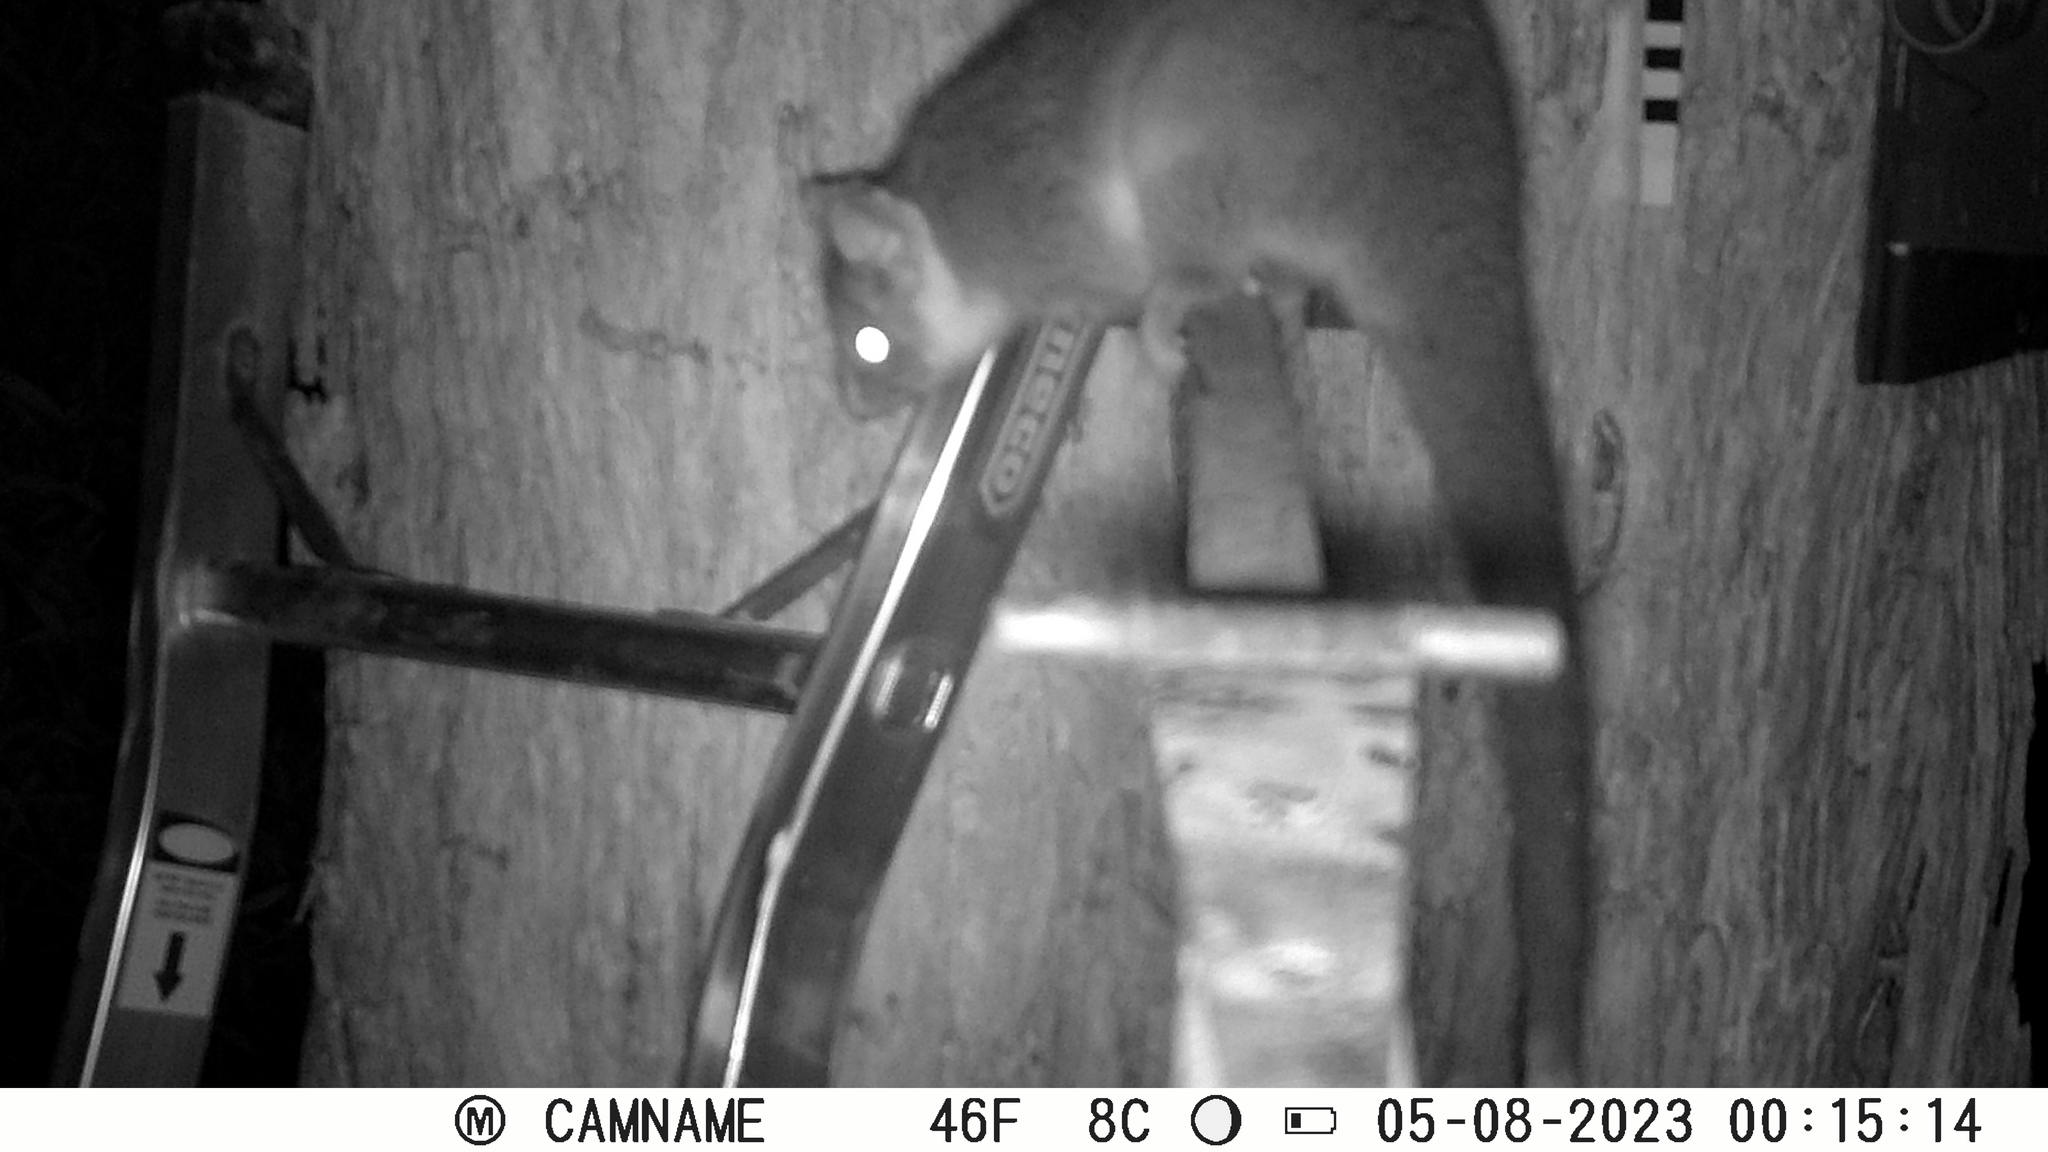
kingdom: Animalia
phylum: Chordata
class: Mammalia
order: Diprotodontia
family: Pseudocheiridae
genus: Pseudocheirus
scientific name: Pseudocheirus peregrinus
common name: Common ringtail possum
